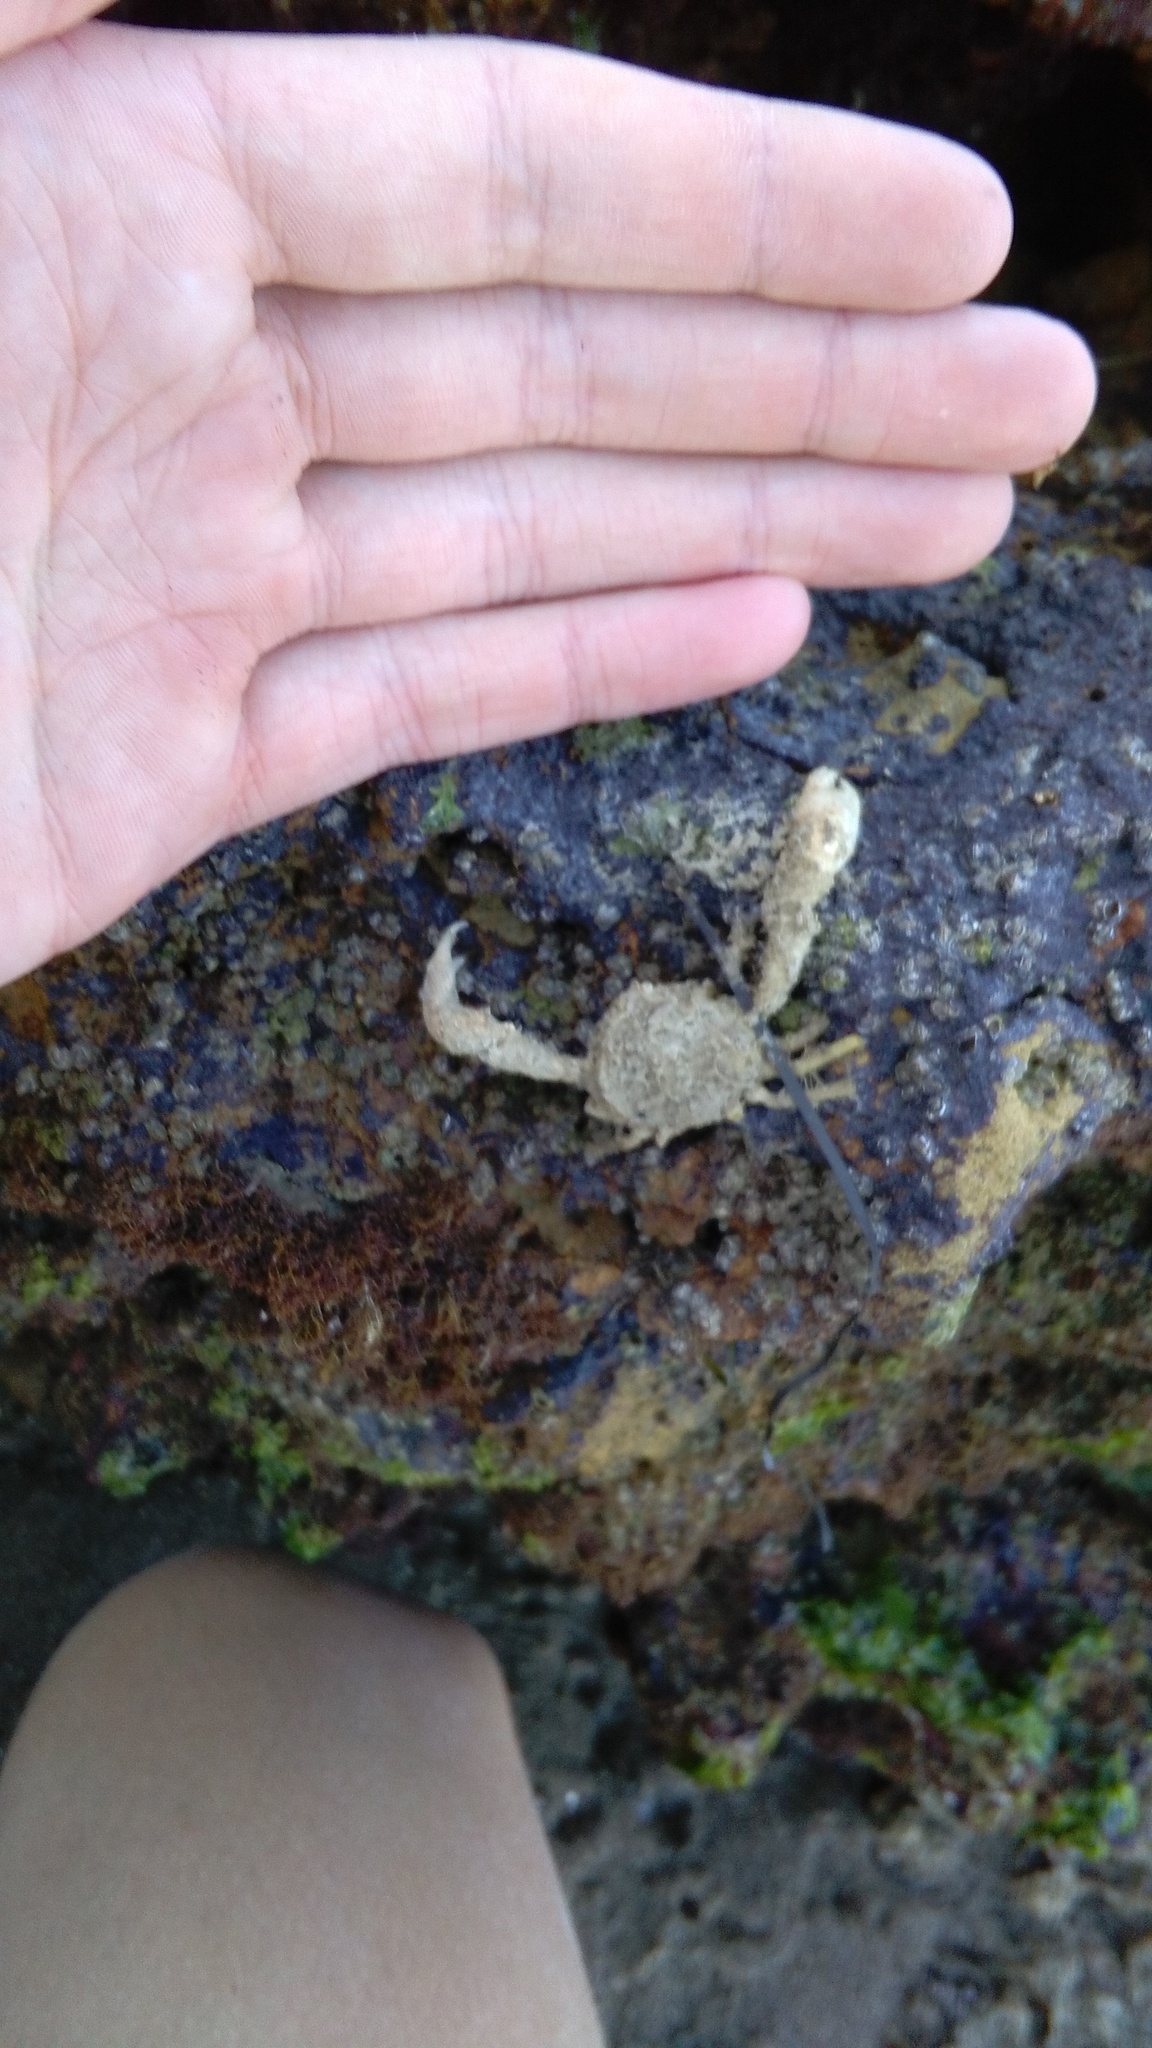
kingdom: Animalia
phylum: Arthropoda
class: Malacostraca
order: Decapoda
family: Hymenosomatidae
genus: Halicarcinus
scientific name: Halicarcinus whitei
